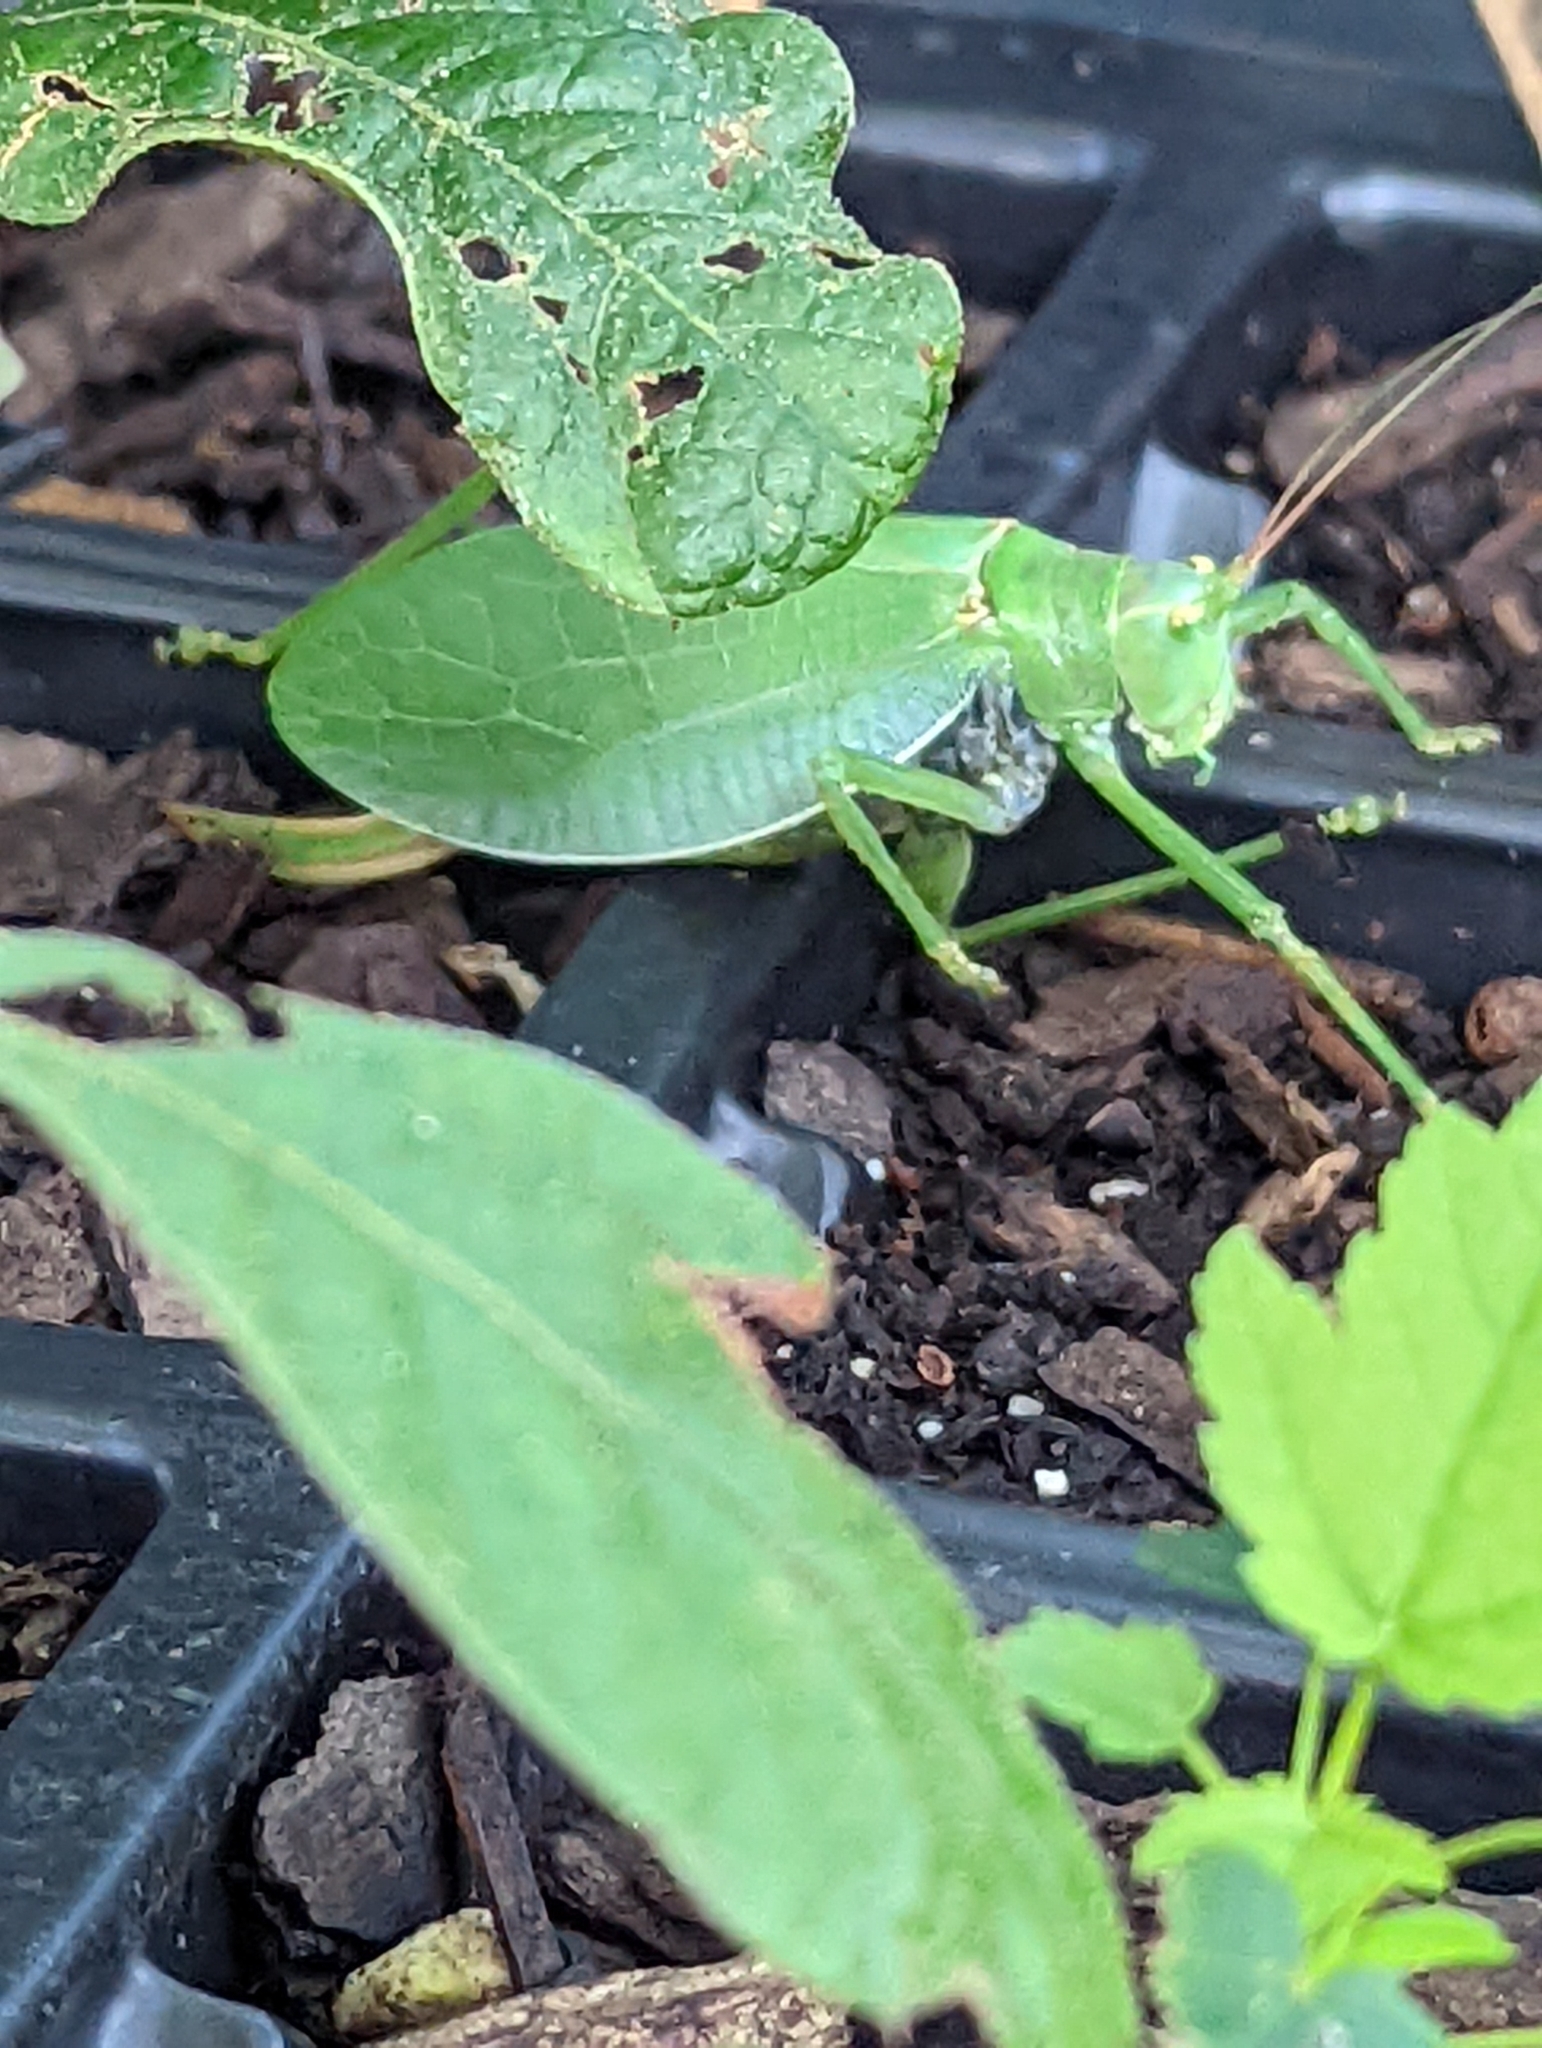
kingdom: Animalia
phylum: Arthropoda
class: Insecta
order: Orthoptera
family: Tettigoniidae
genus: Pterophylla
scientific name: Pterophylla camellifolia
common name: Common true katydid
